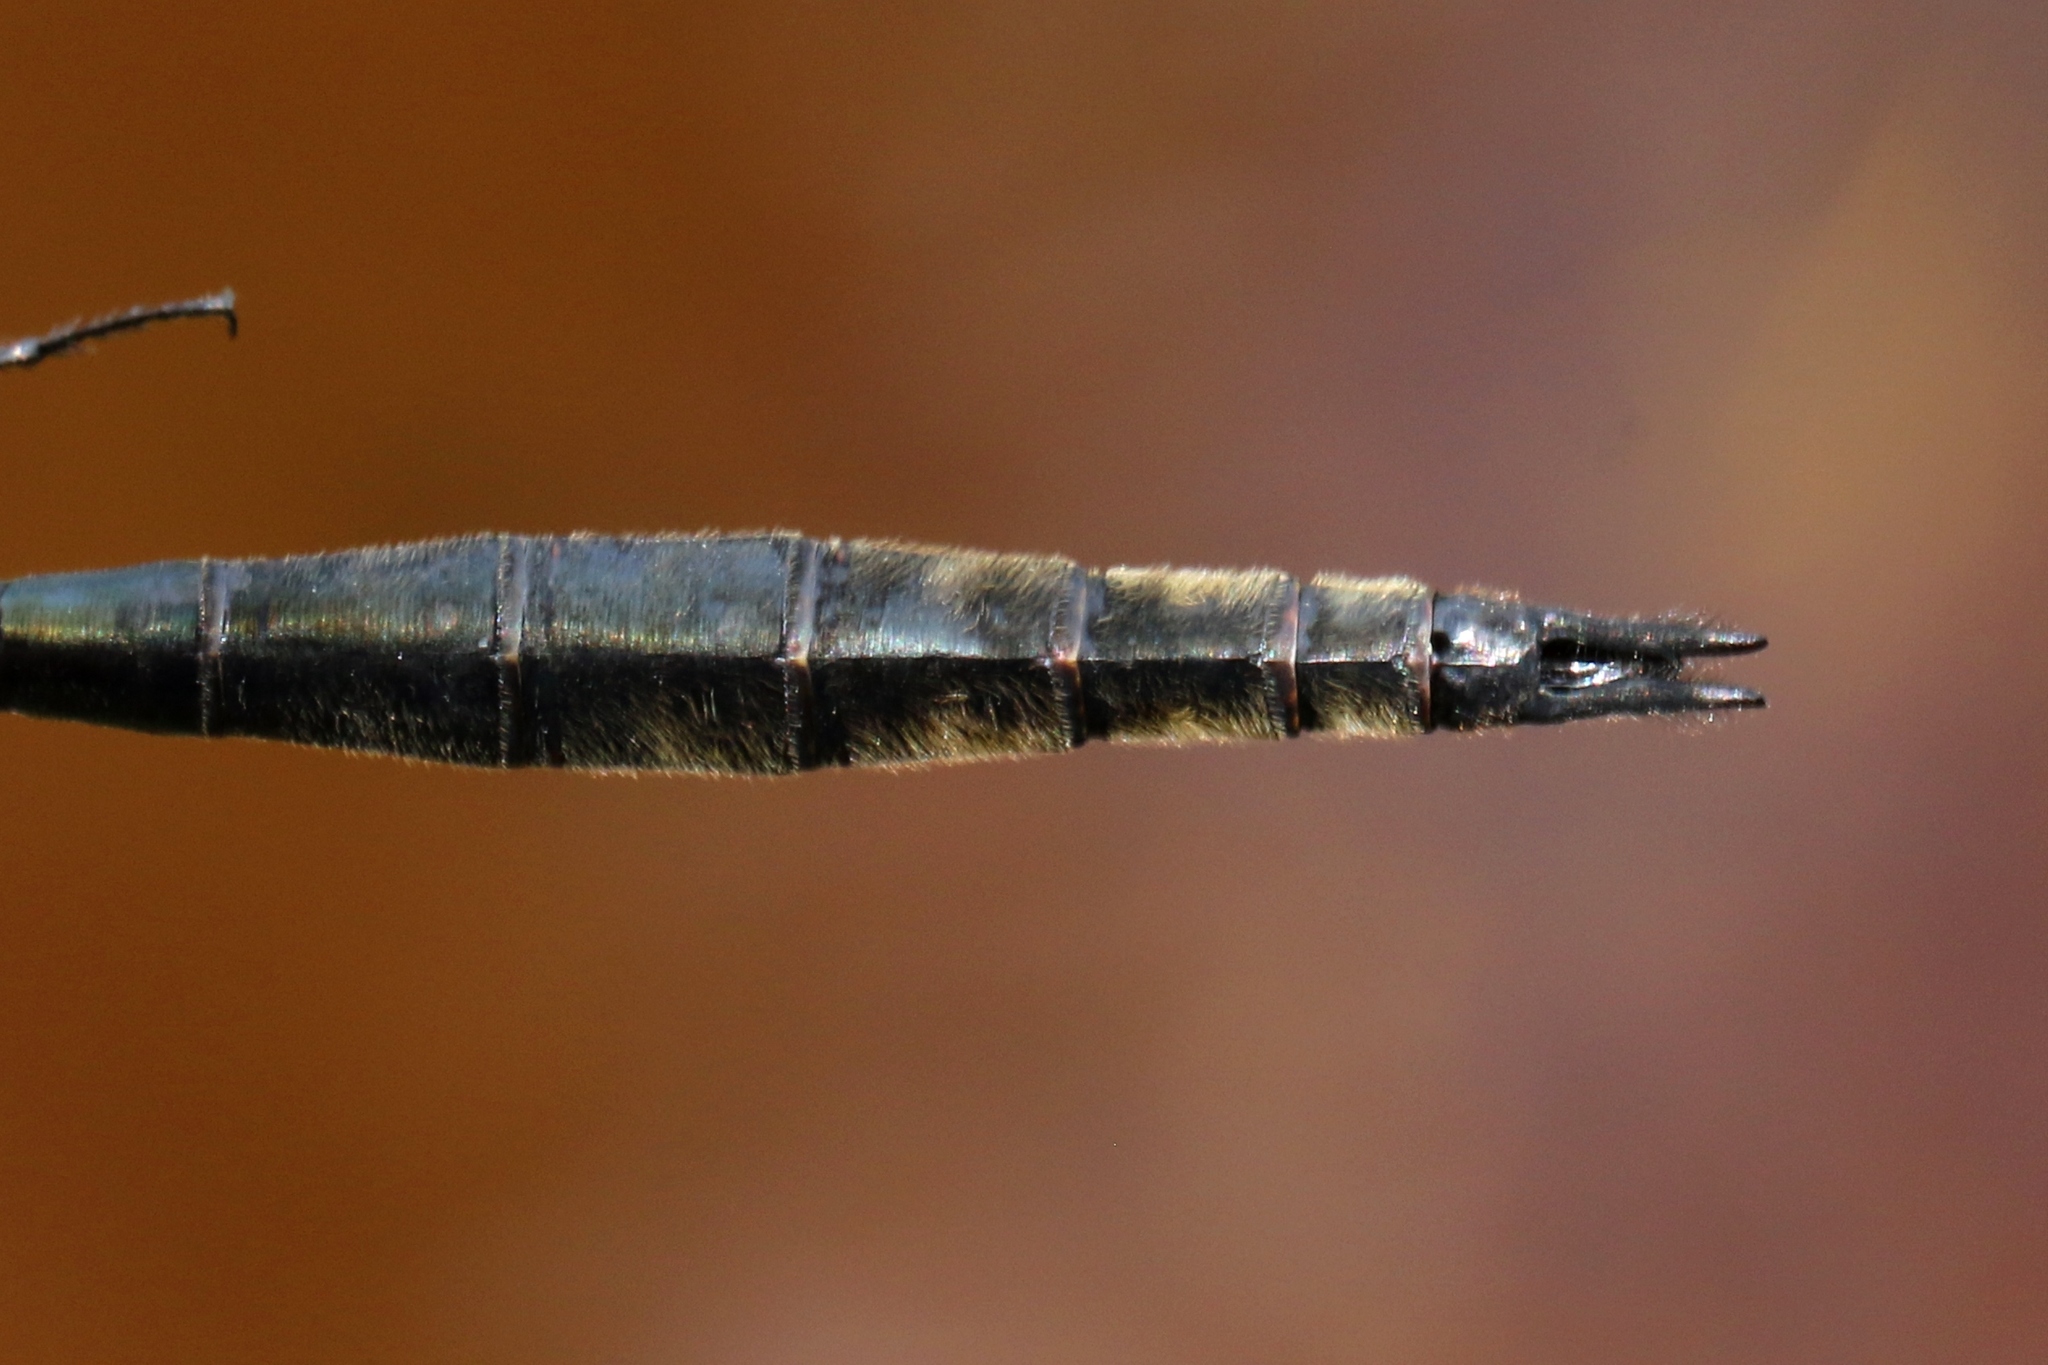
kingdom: Animalia
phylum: Arthropoda
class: Insecta
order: Odonata
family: Corduliidae
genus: Somatochlora
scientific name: Somatochlora elongata
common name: Ski-tipped emerald
